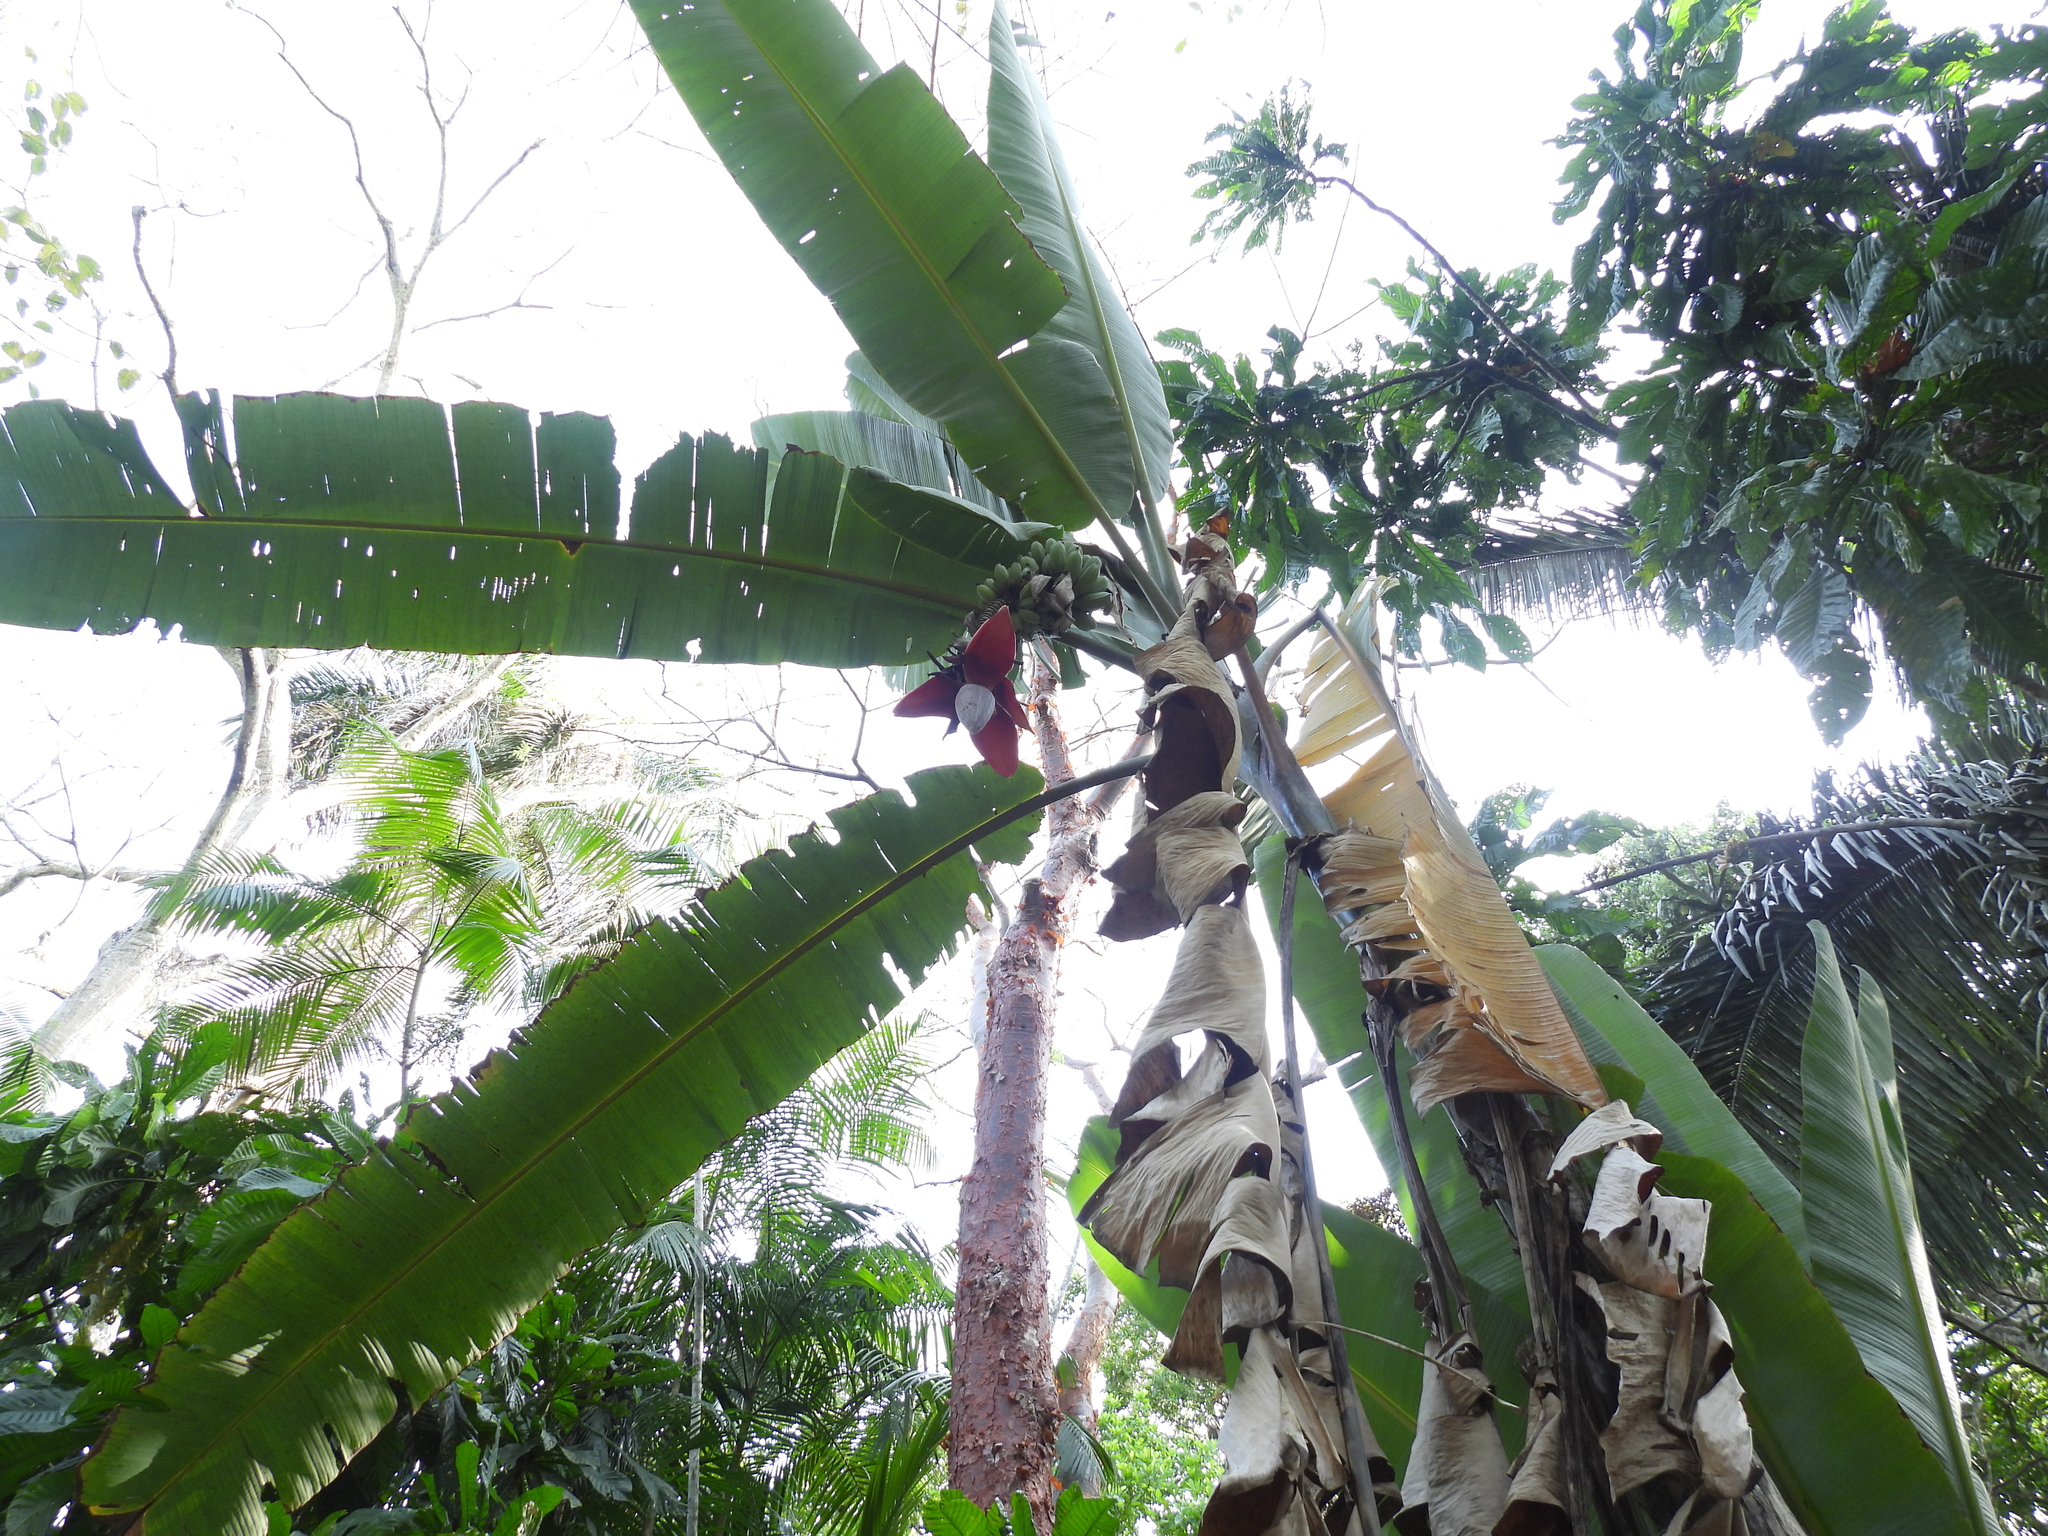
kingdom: Plantae
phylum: Tracheophyta
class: Liliopsida
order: Zingiberales
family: Musaceae
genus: Musa
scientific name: Musa balbisiana
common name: Plantain
